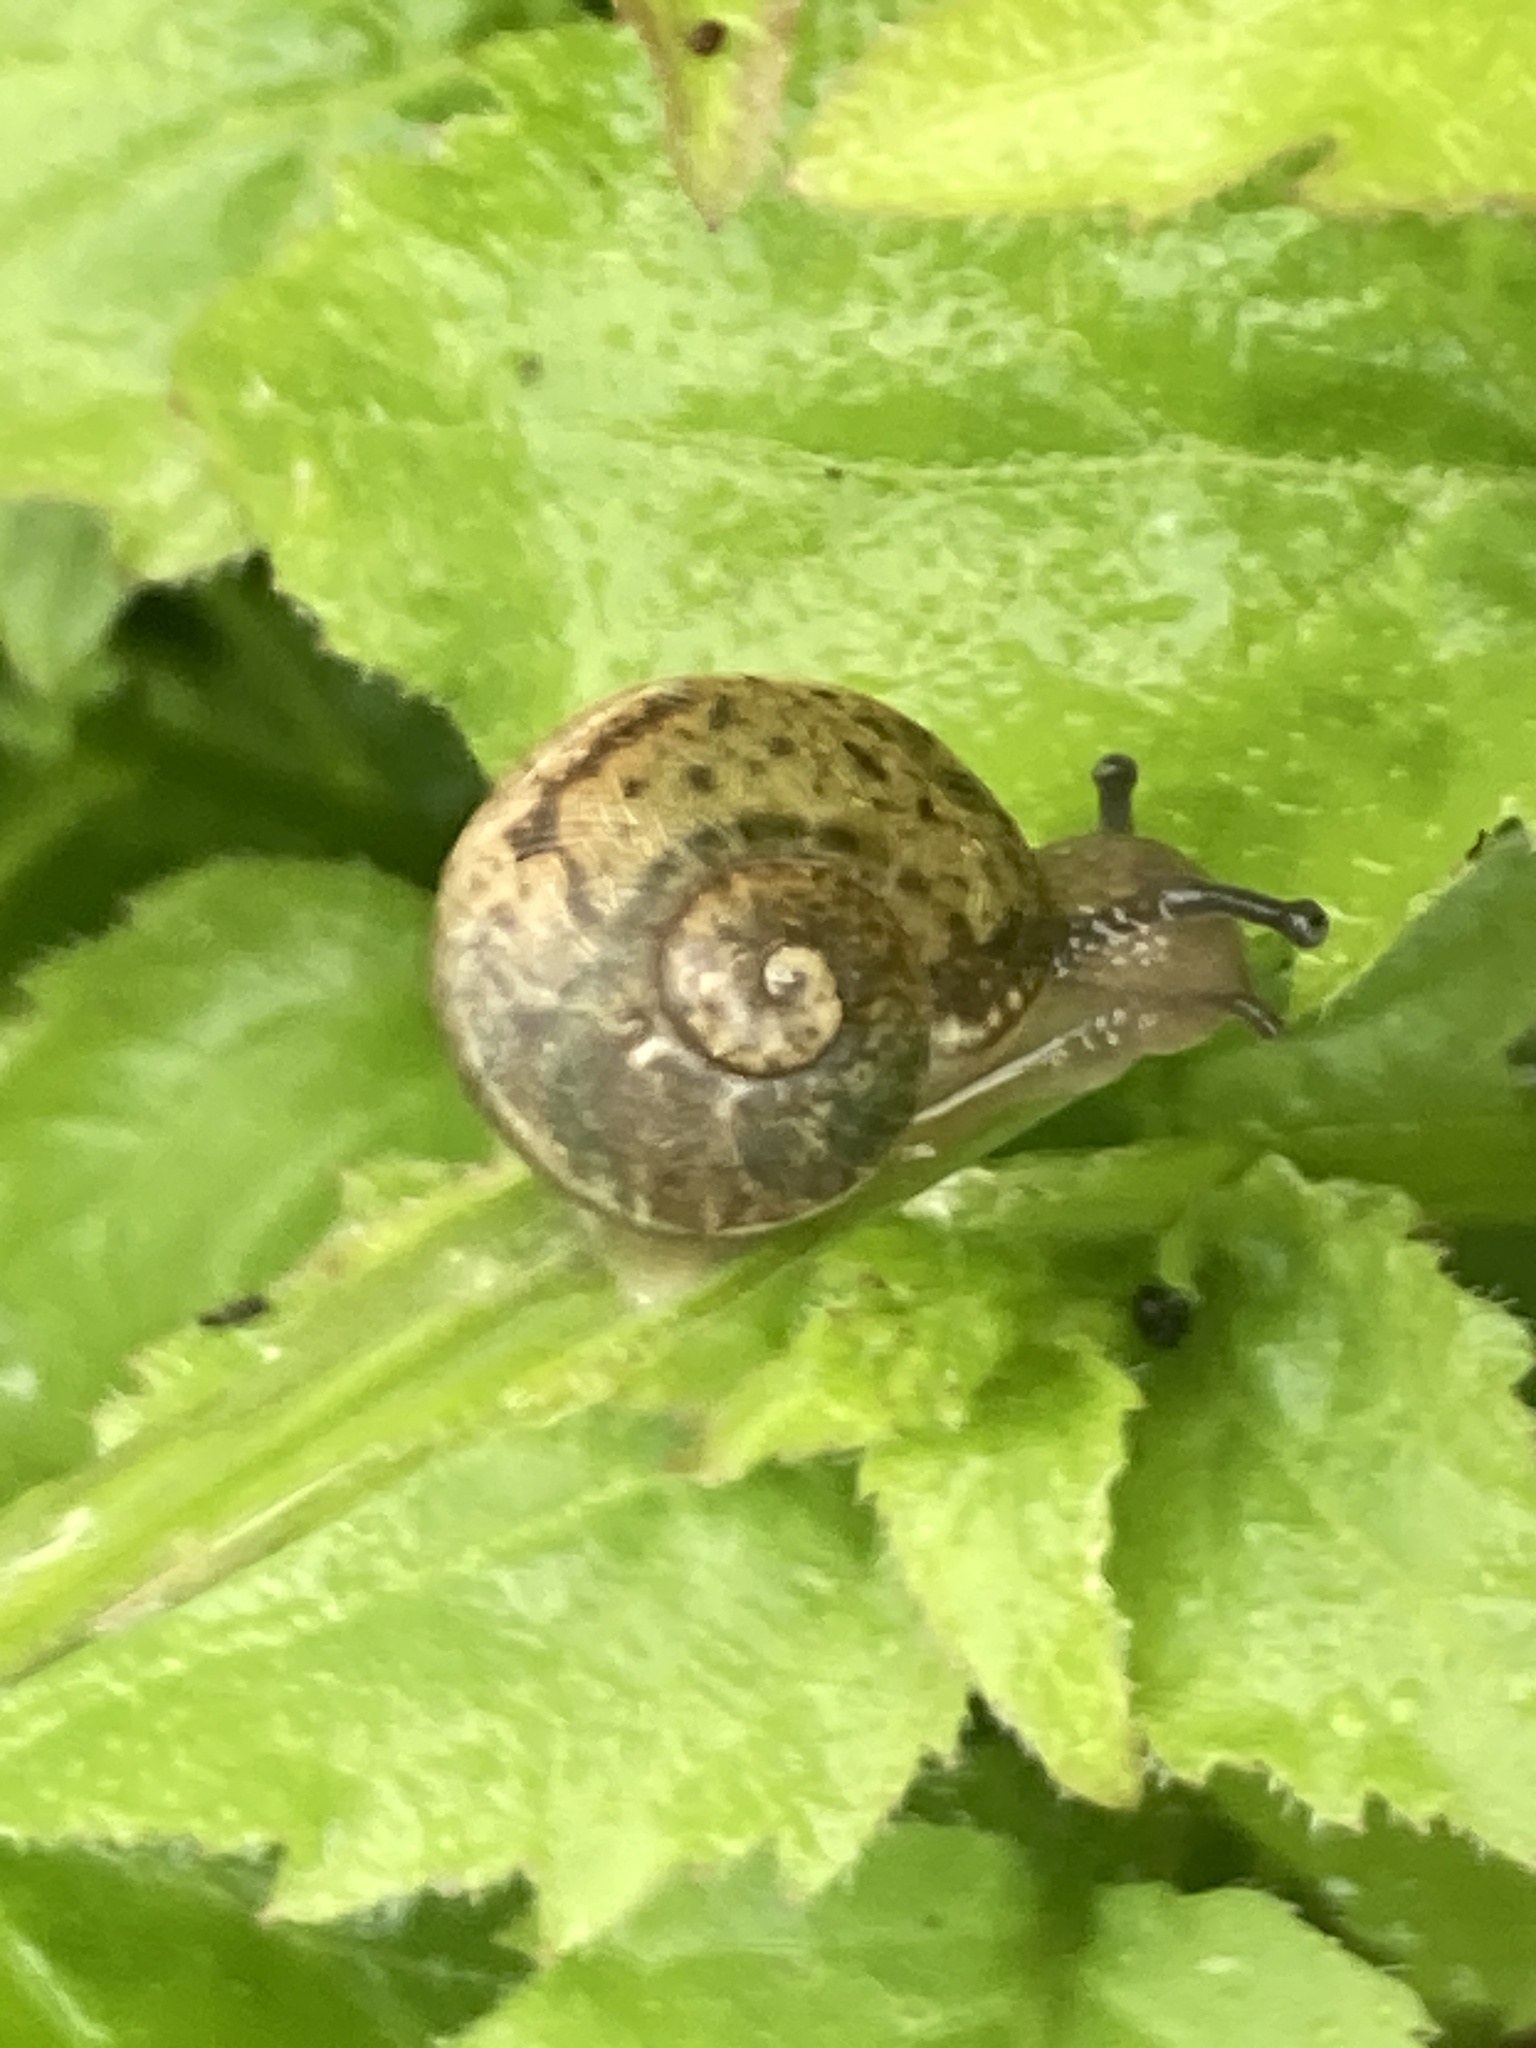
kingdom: Animalia
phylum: Mollusca
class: Gastropoda
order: Stylommatophora
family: Helicidae
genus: Cornu
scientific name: Cornu aspersum
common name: Brown garden snail
